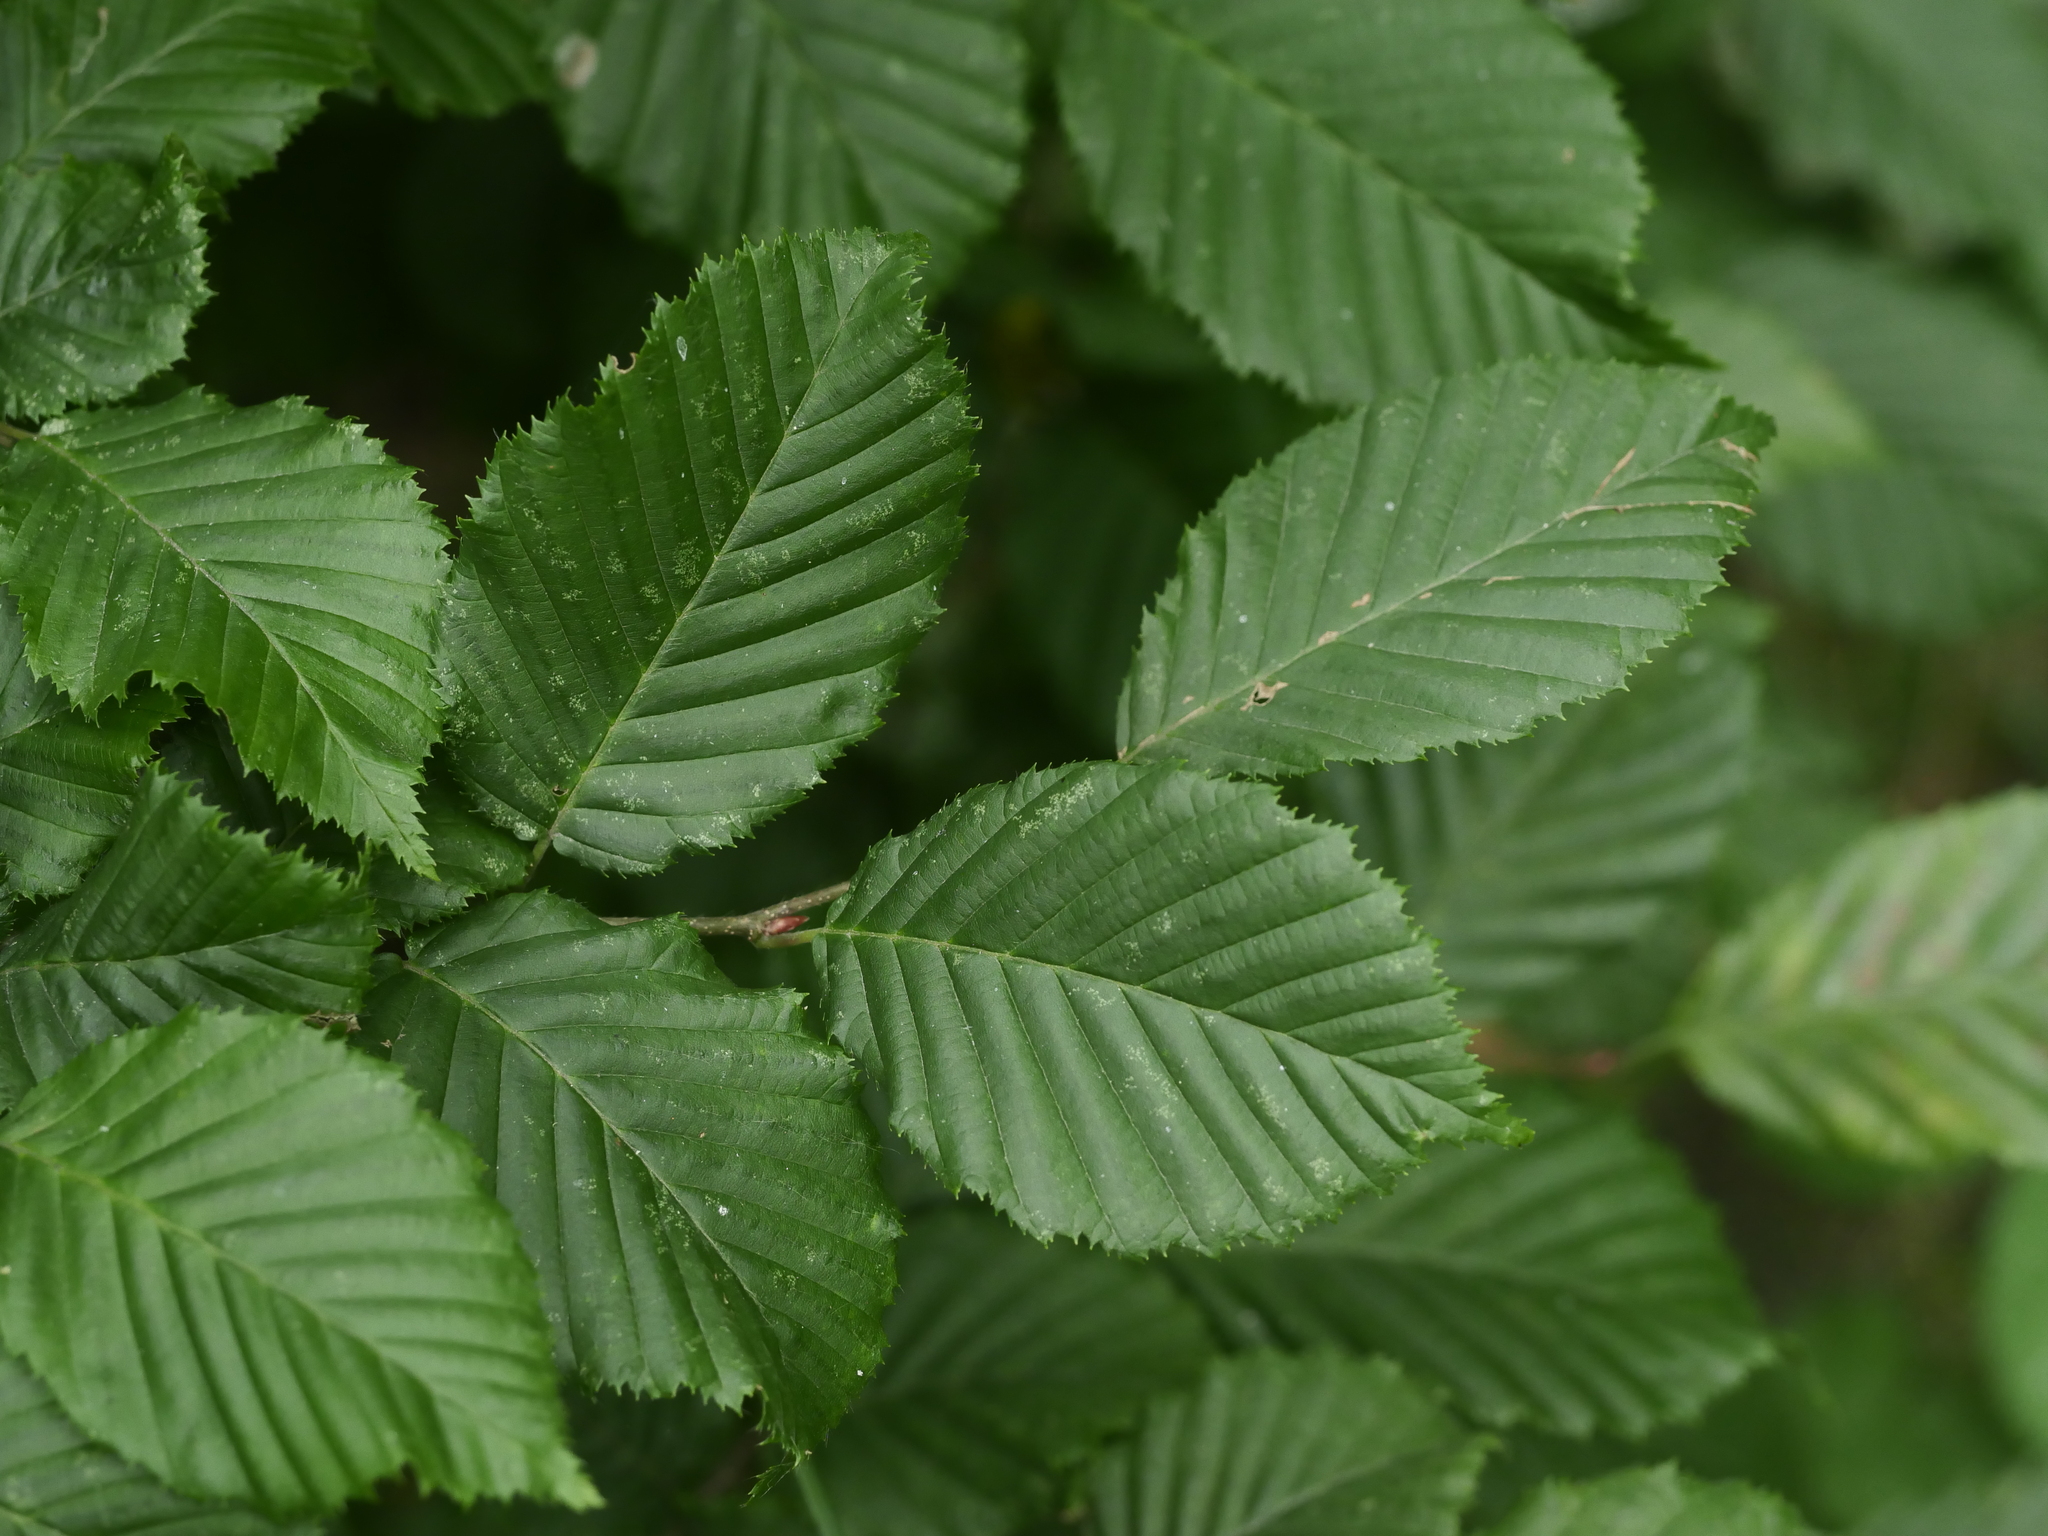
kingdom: Plantae
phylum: Tracheophyta
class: Magnoliopsida
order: Fagales
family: Betulaceae
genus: Carpinus
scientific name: Carpinus betulus
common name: Hornbeam
